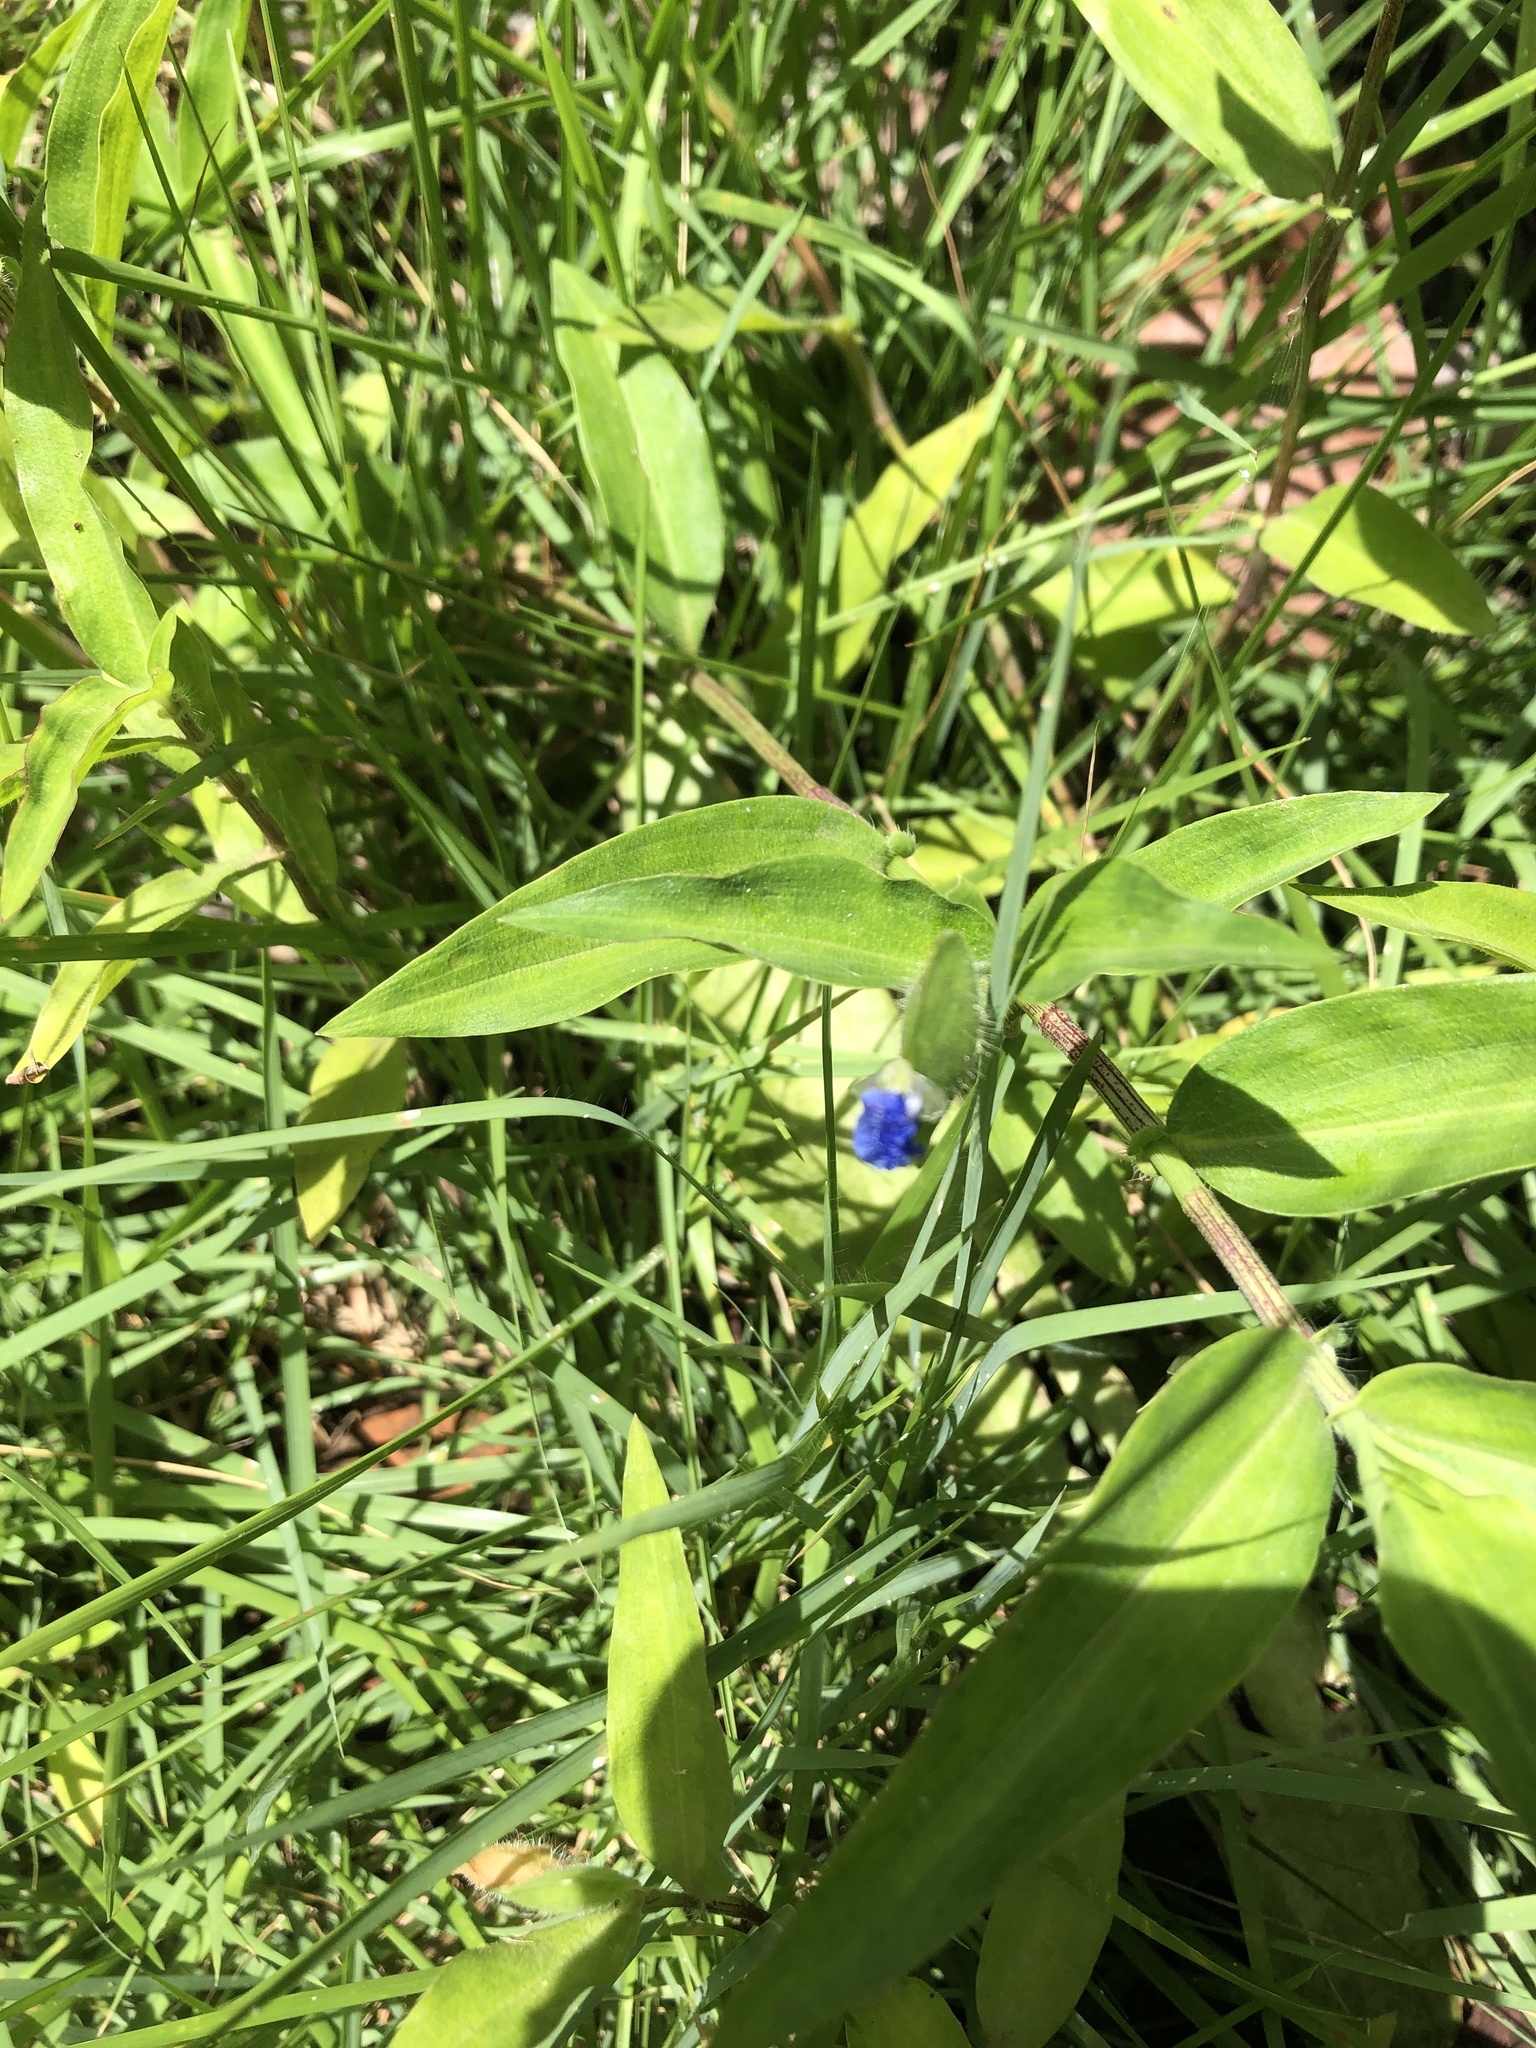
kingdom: Plantae
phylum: Tracheophyta
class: Liliopsida
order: Commelinales
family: Commelinaceae
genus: Commelina
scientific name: Commelina erecta
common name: Blousel blommetjie
